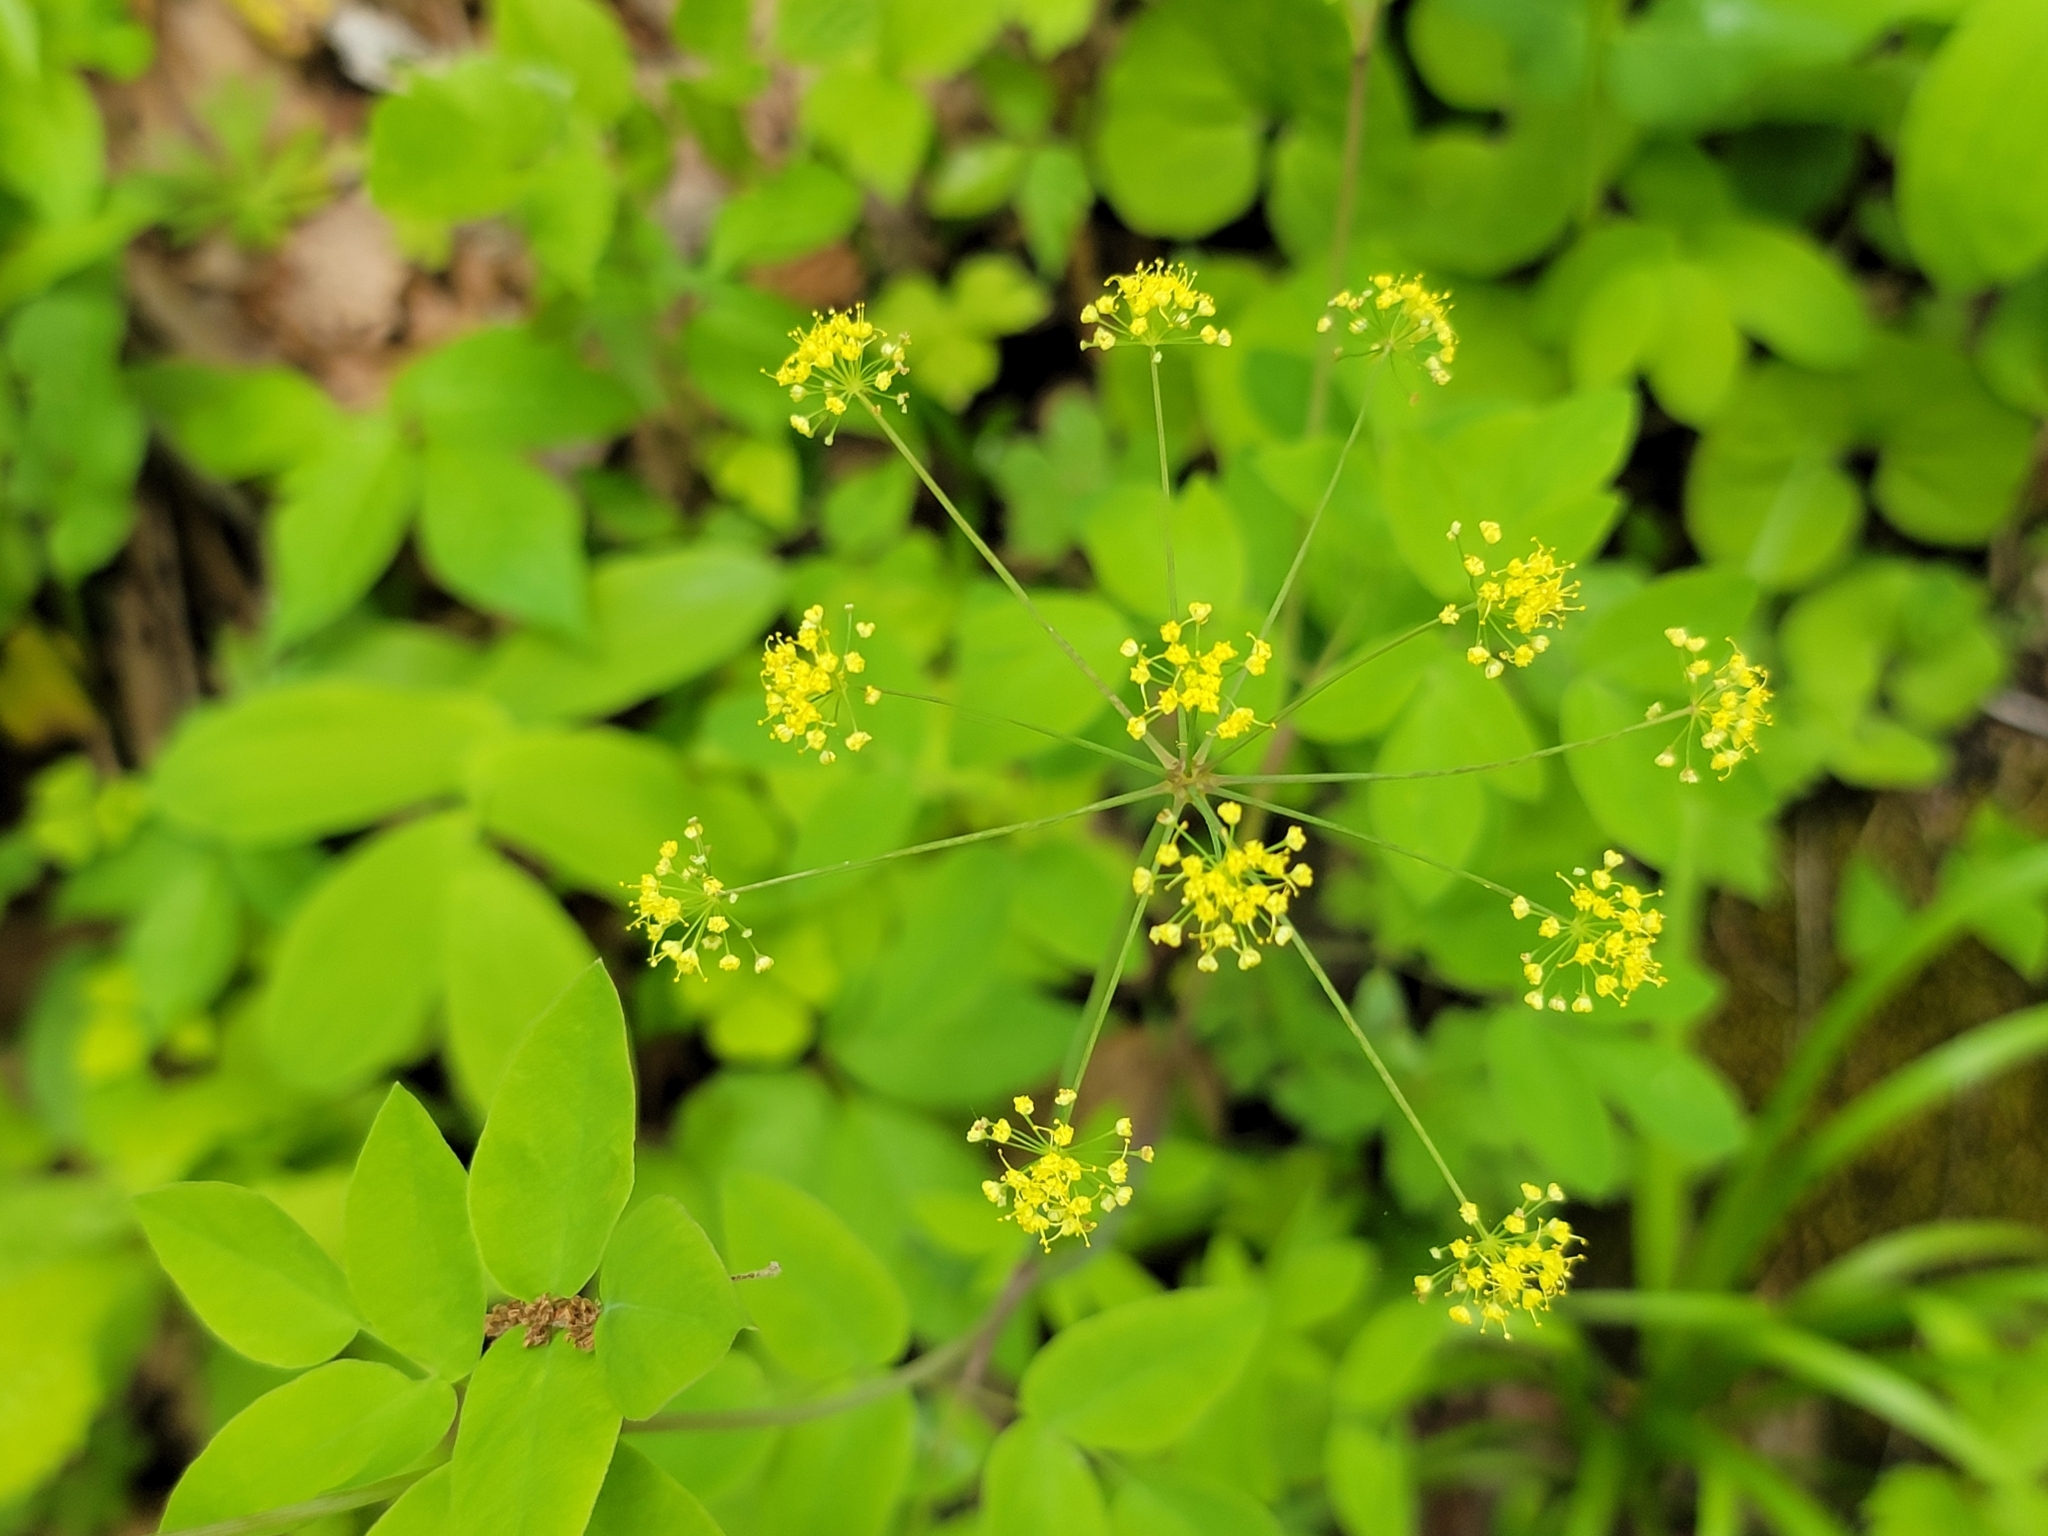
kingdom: Plantae
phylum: Tracheophyta
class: Magnoliopsida
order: Apiales
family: Apiaceae
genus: Taenidia
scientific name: Taenidia integerrima
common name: Golden alexander
